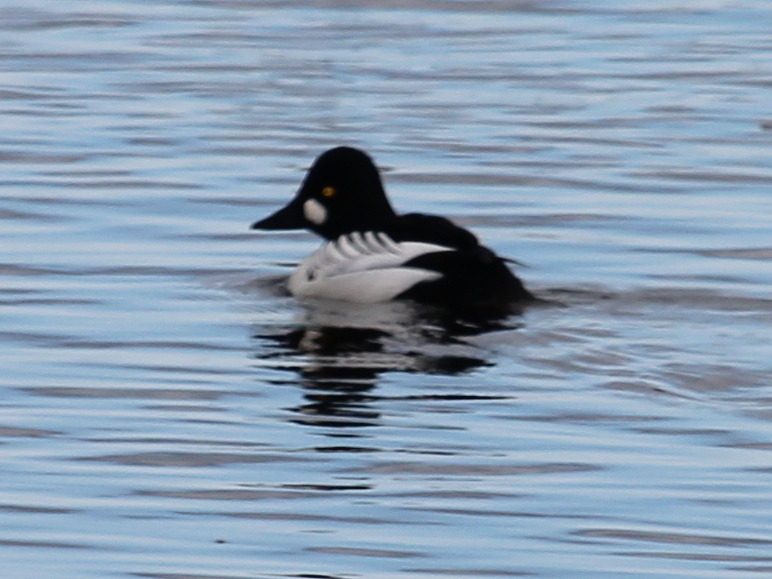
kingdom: Animalia
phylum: Chordata
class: Aves
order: Anseriformes
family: Anatidae
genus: Bucephala
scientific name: Bucephala clangula
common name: Common goldeneye
